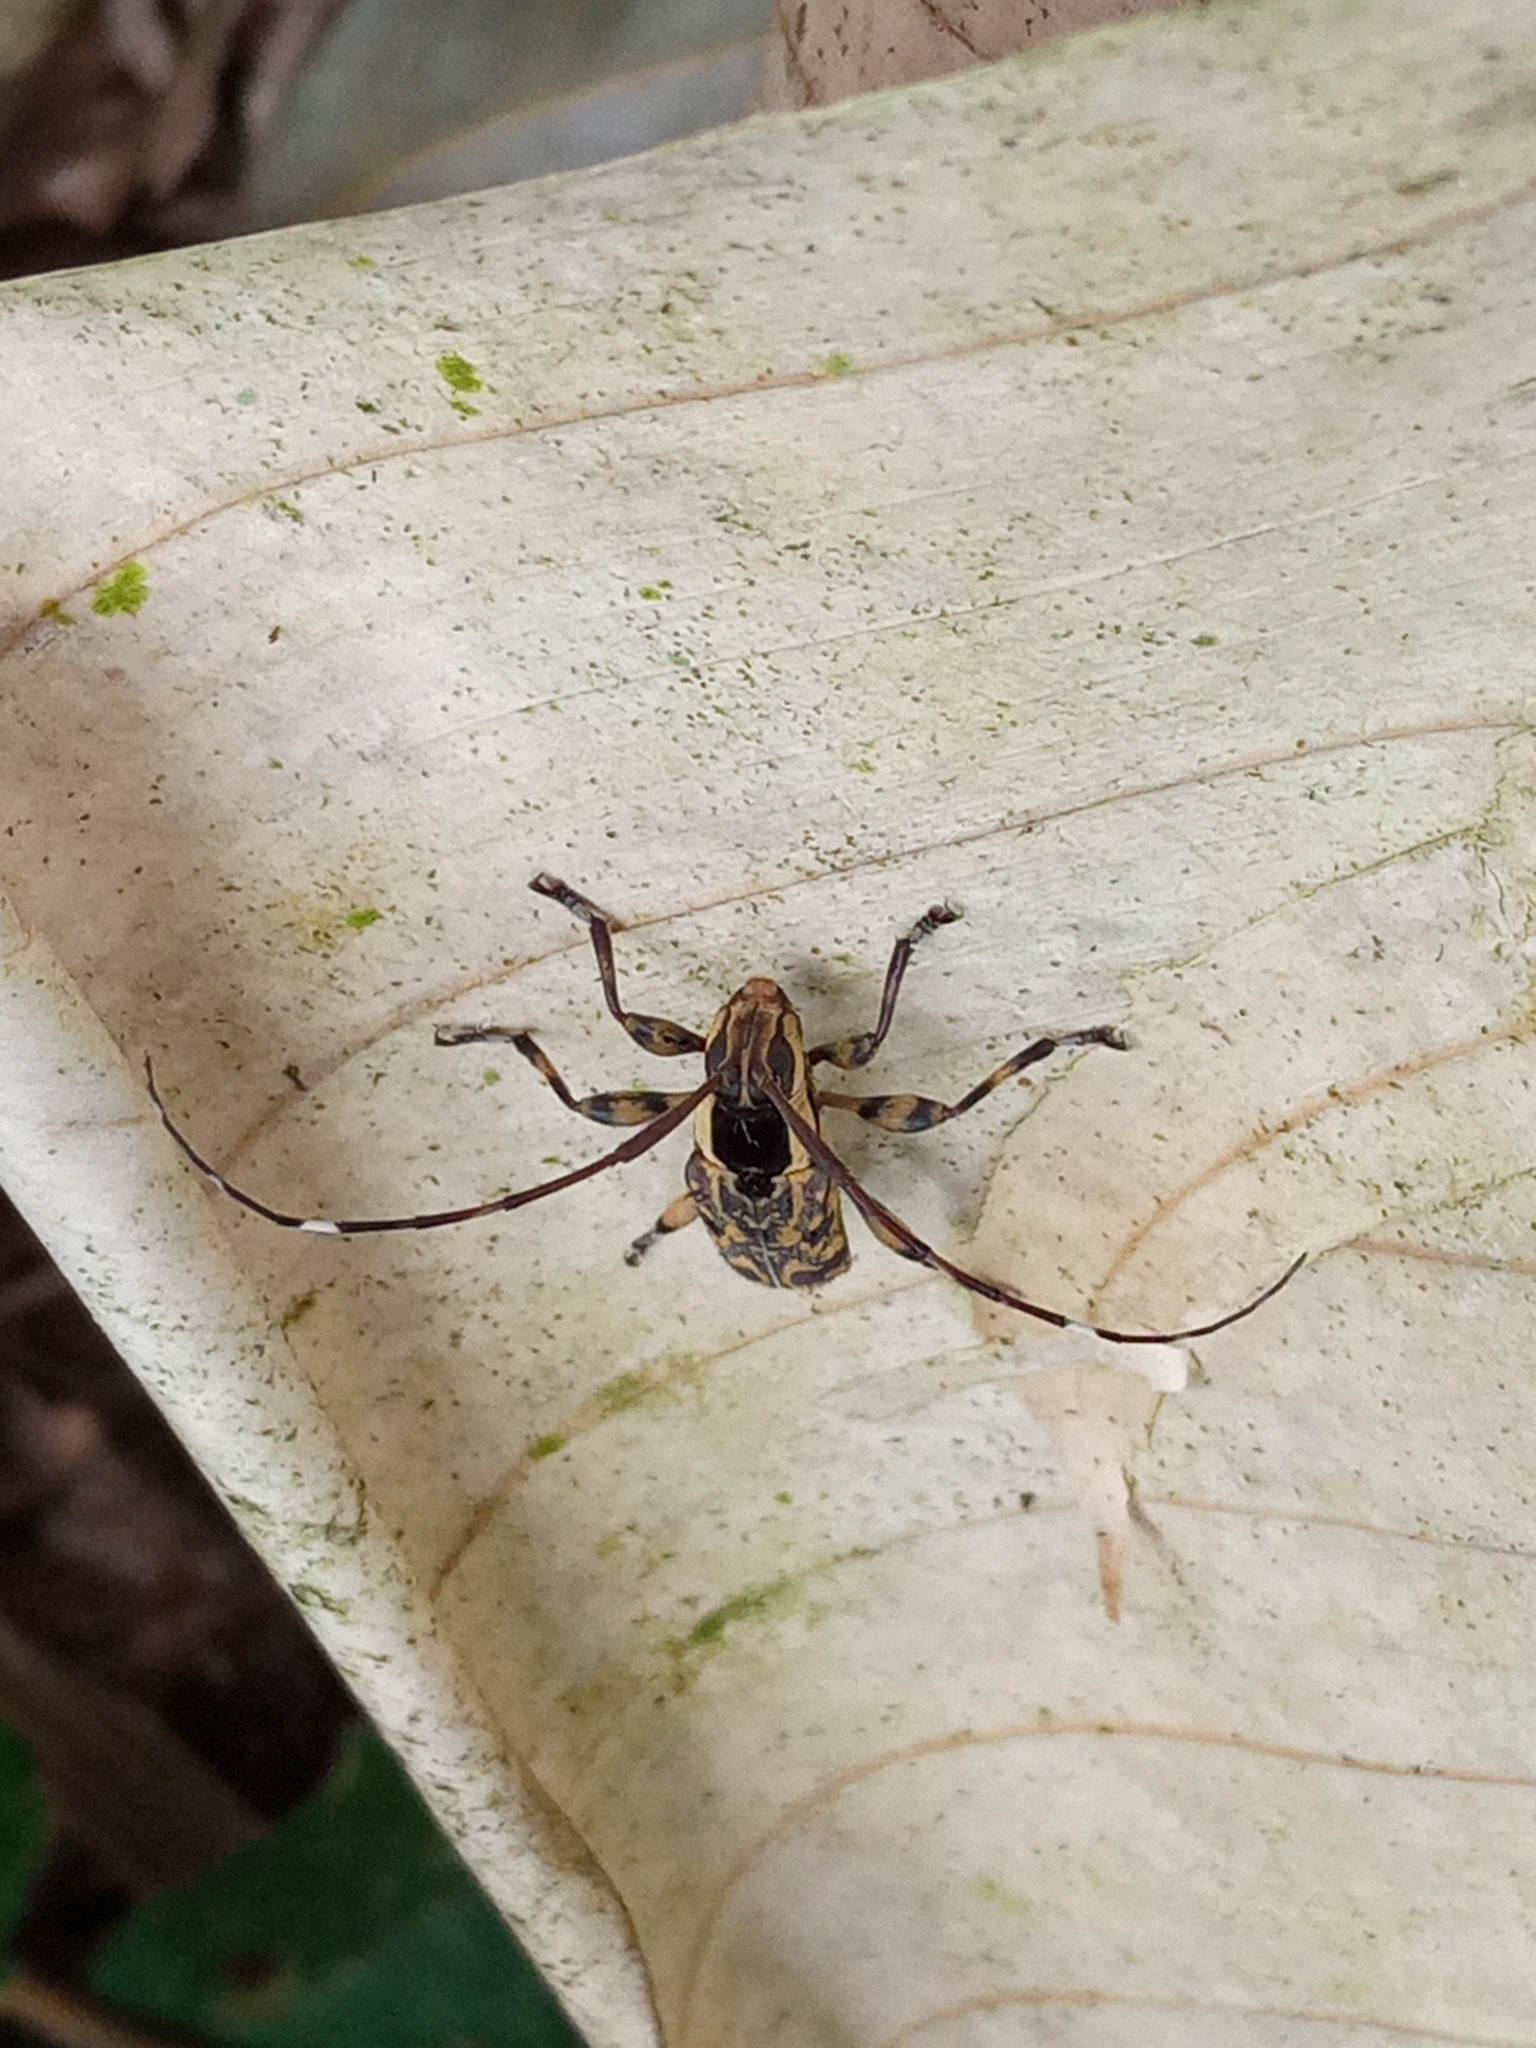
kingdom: Animalia
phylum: Arthropoda
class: Insecta
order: Coleoptera
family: Cerambycidae
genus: Colobothea
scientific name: Colobothea macularis
